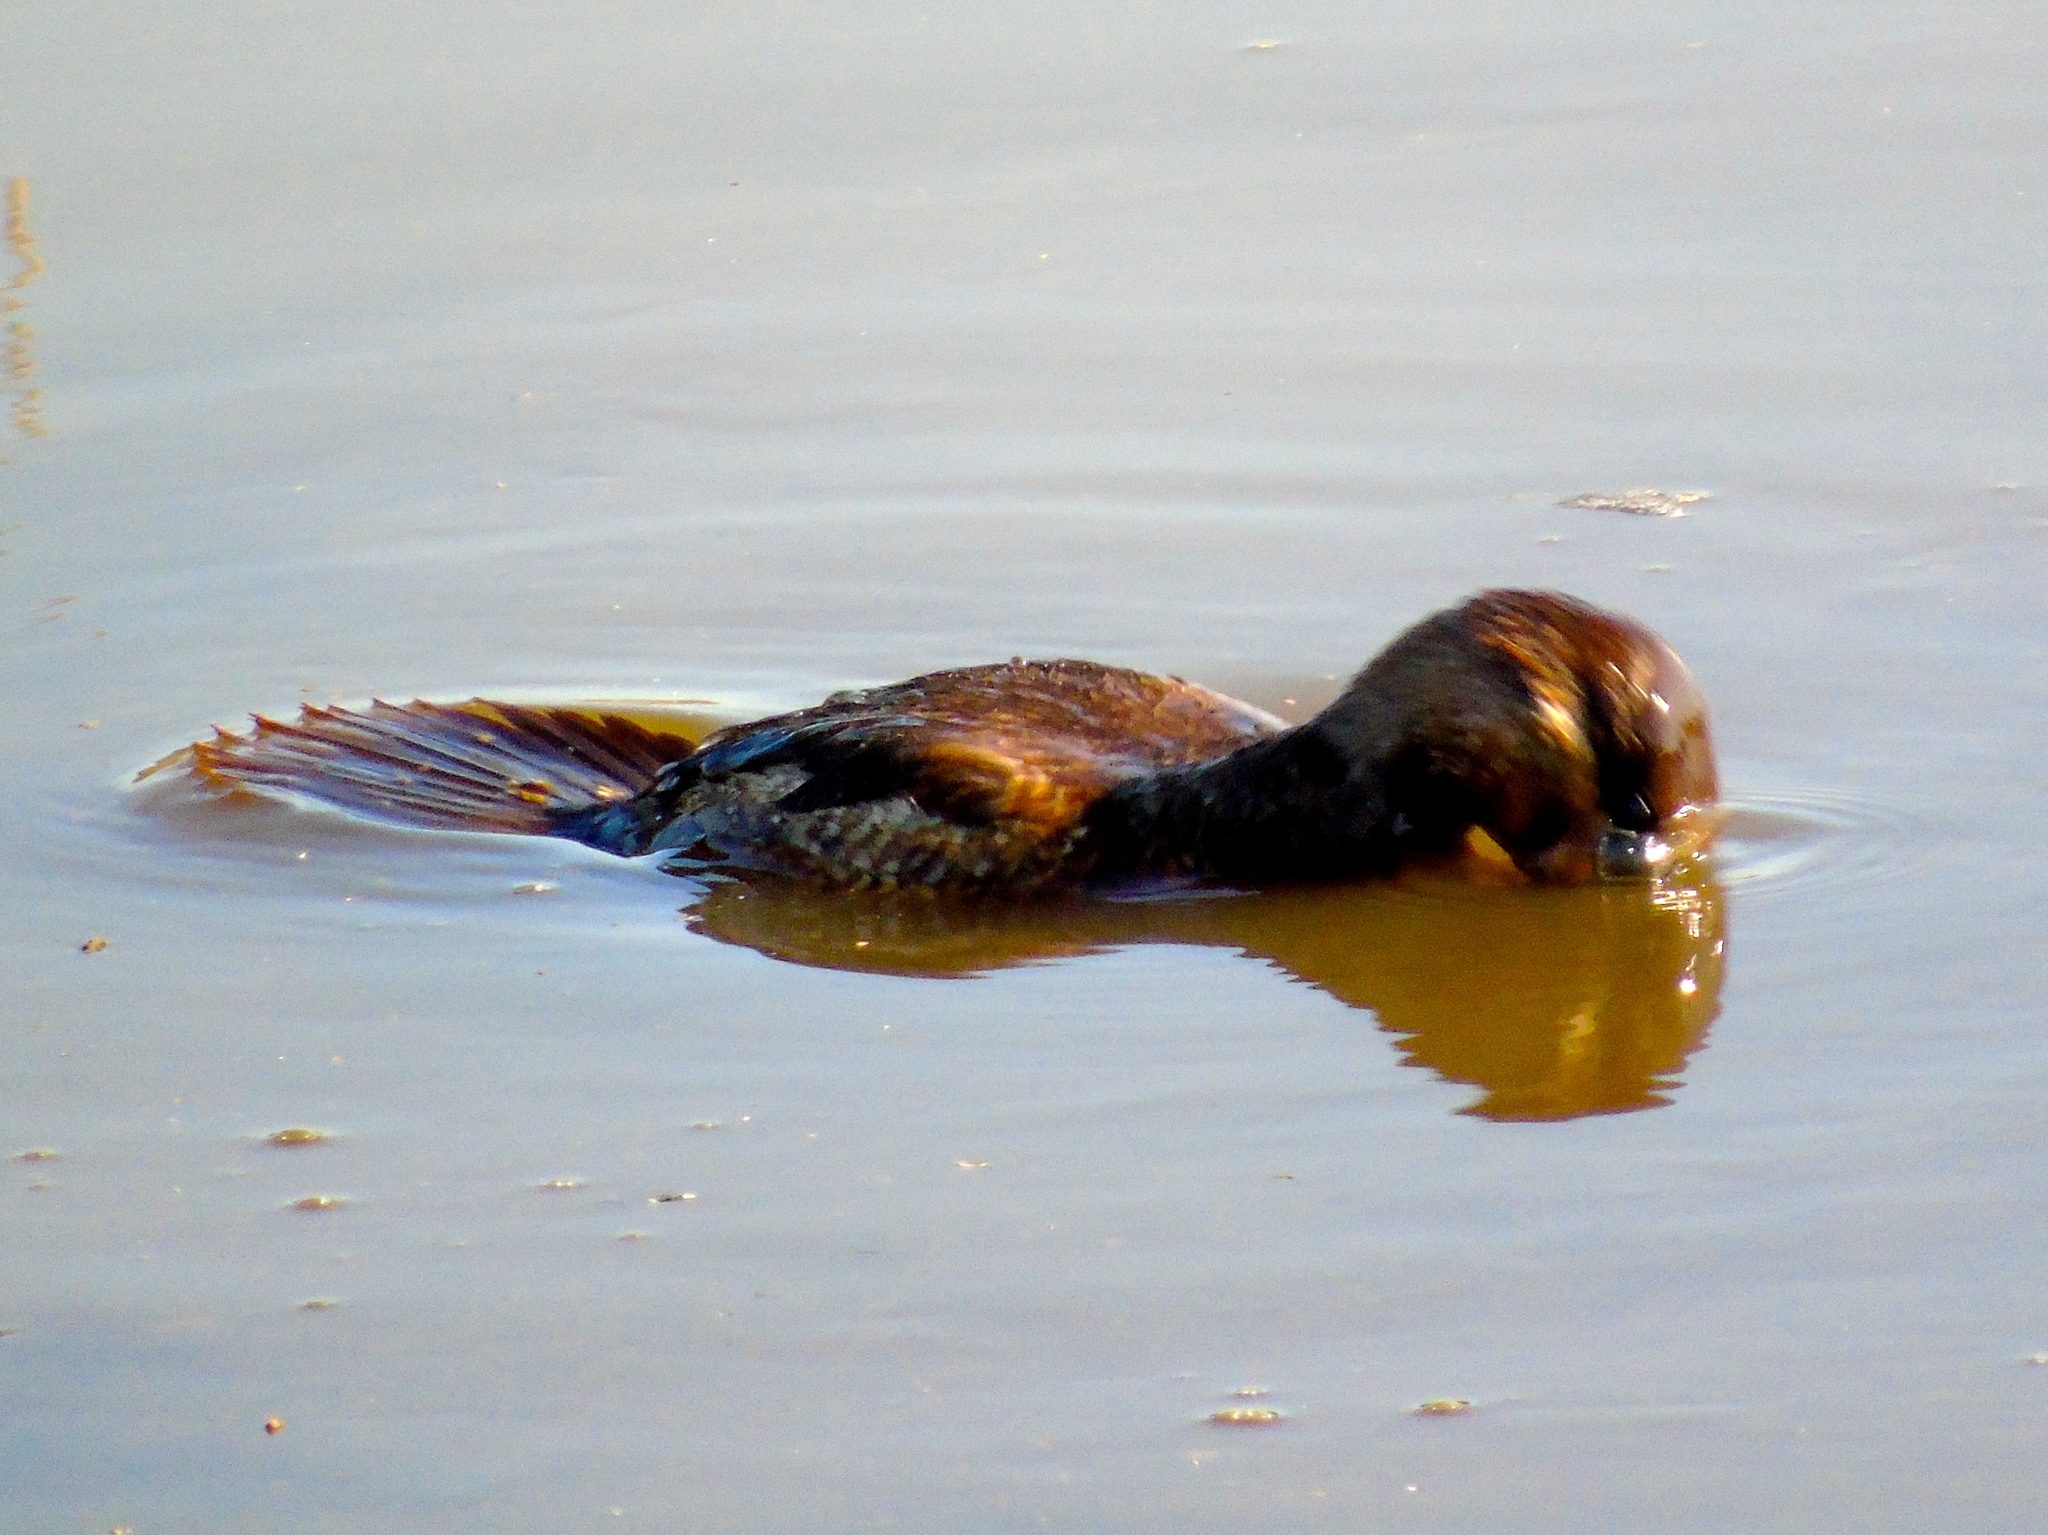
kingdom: Animalia
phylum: Chordata
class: Aves
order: Anseriformes
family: Anatidae
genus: Oxyura
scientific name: Oxyura jamaicensis
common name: Ruddy duck
